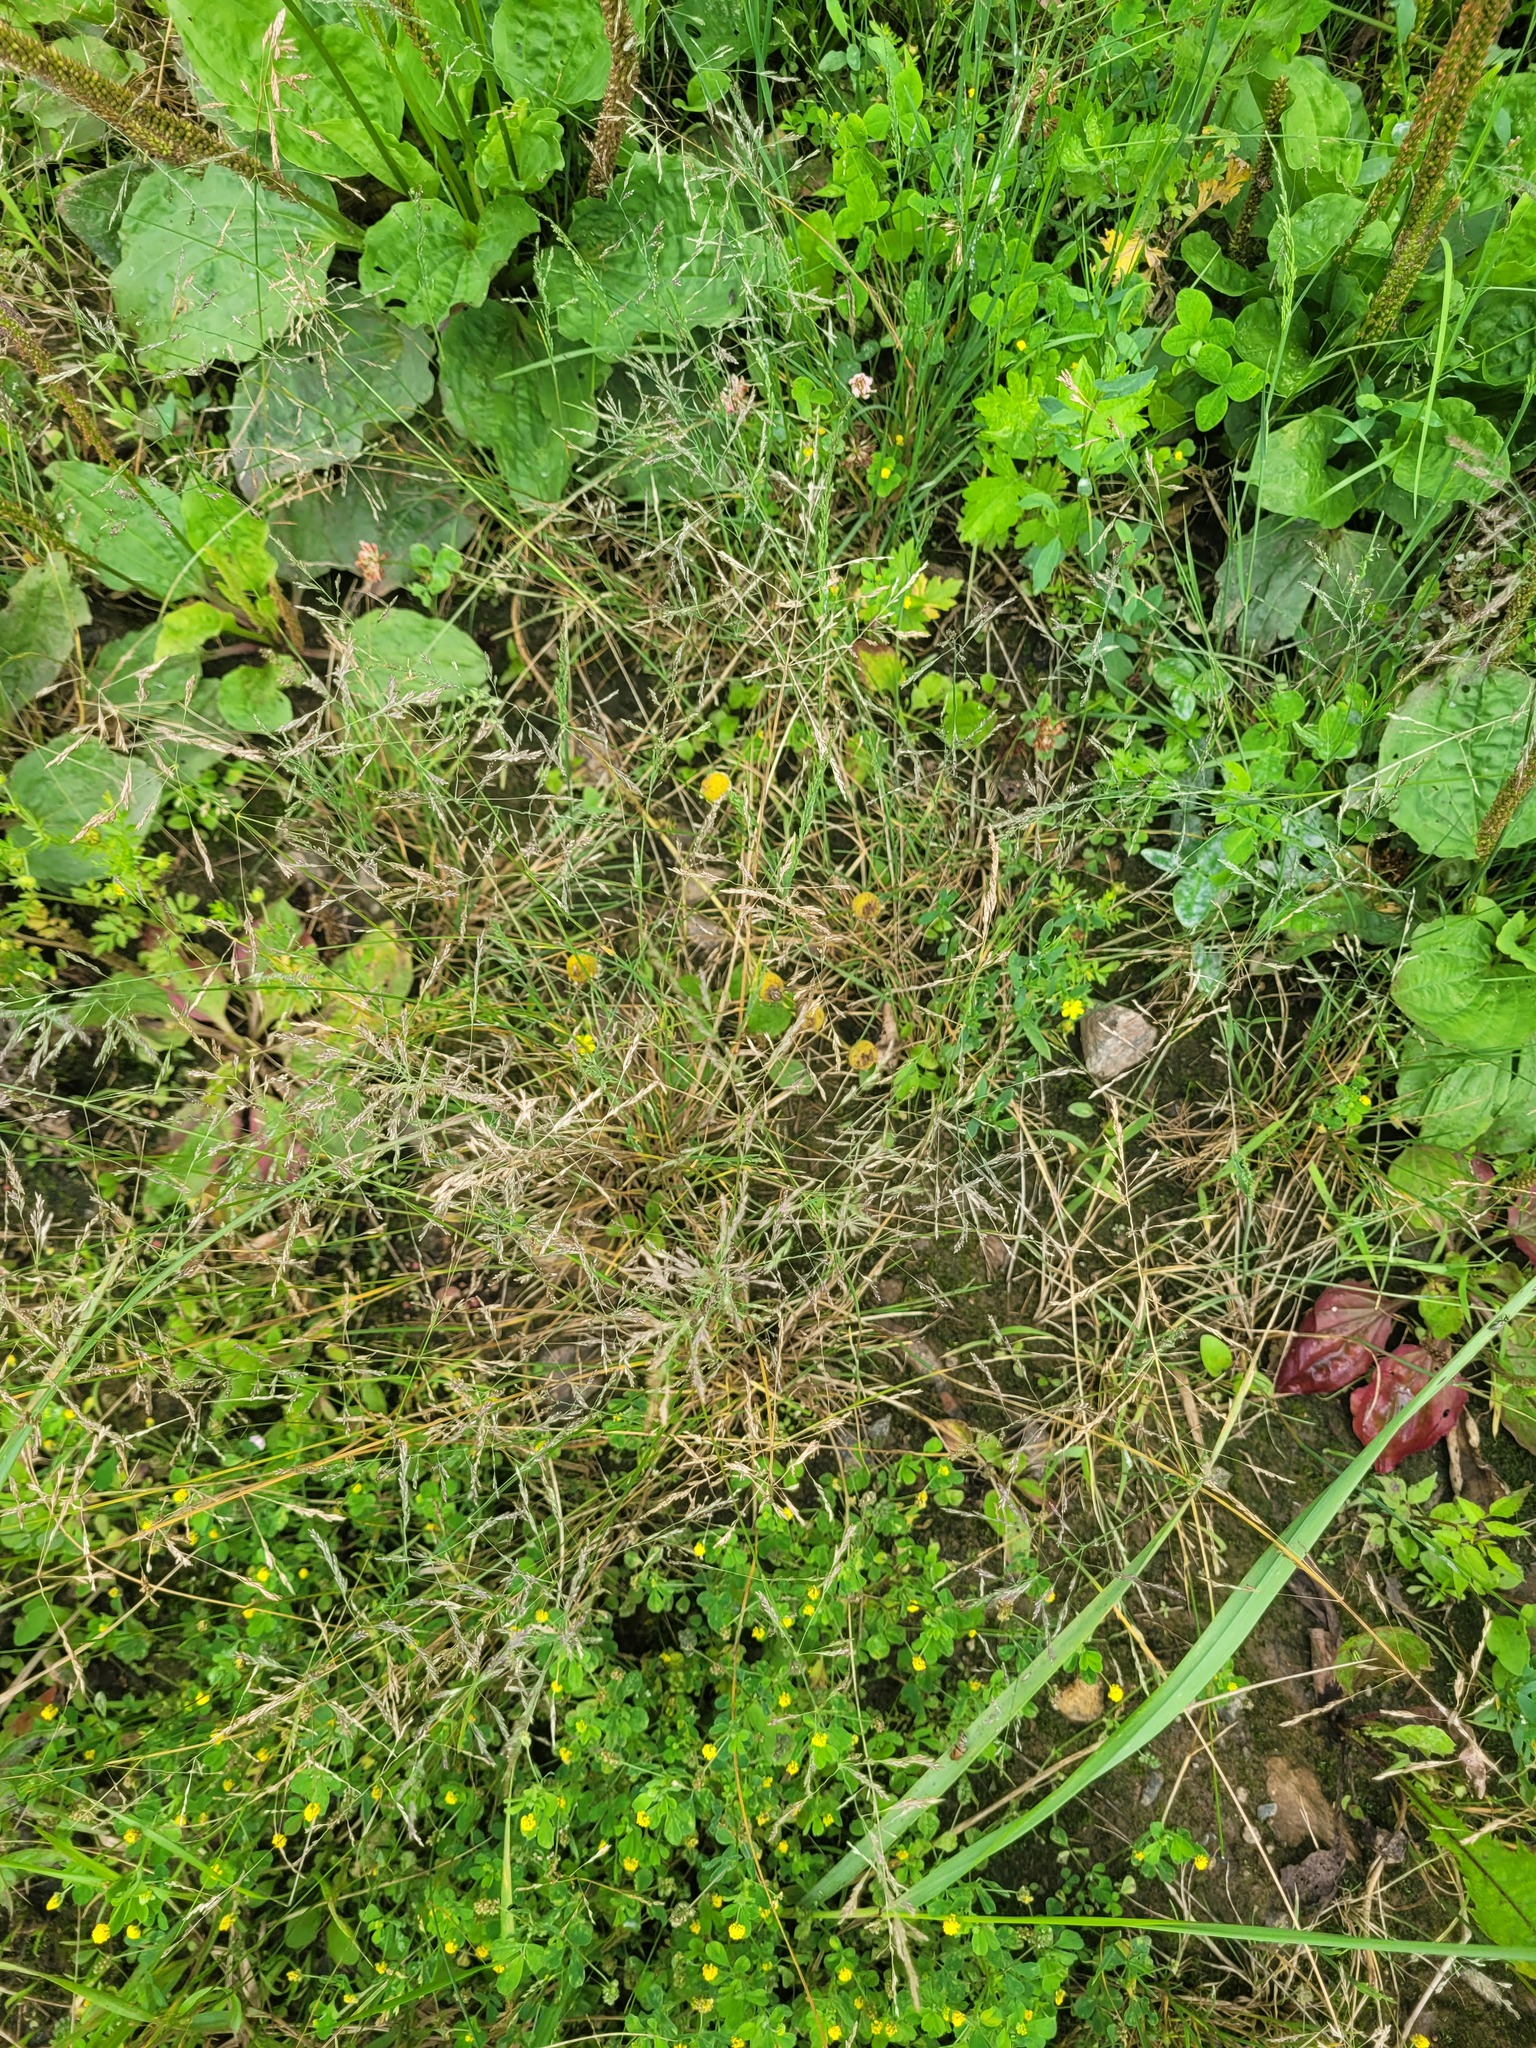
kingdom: Plantae
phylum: Tracheophyta
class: Liliopsida
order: Poales
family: Poaceae
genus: Puccinellia
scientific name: Puccinellia distans
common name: Weeping alkaligrass
